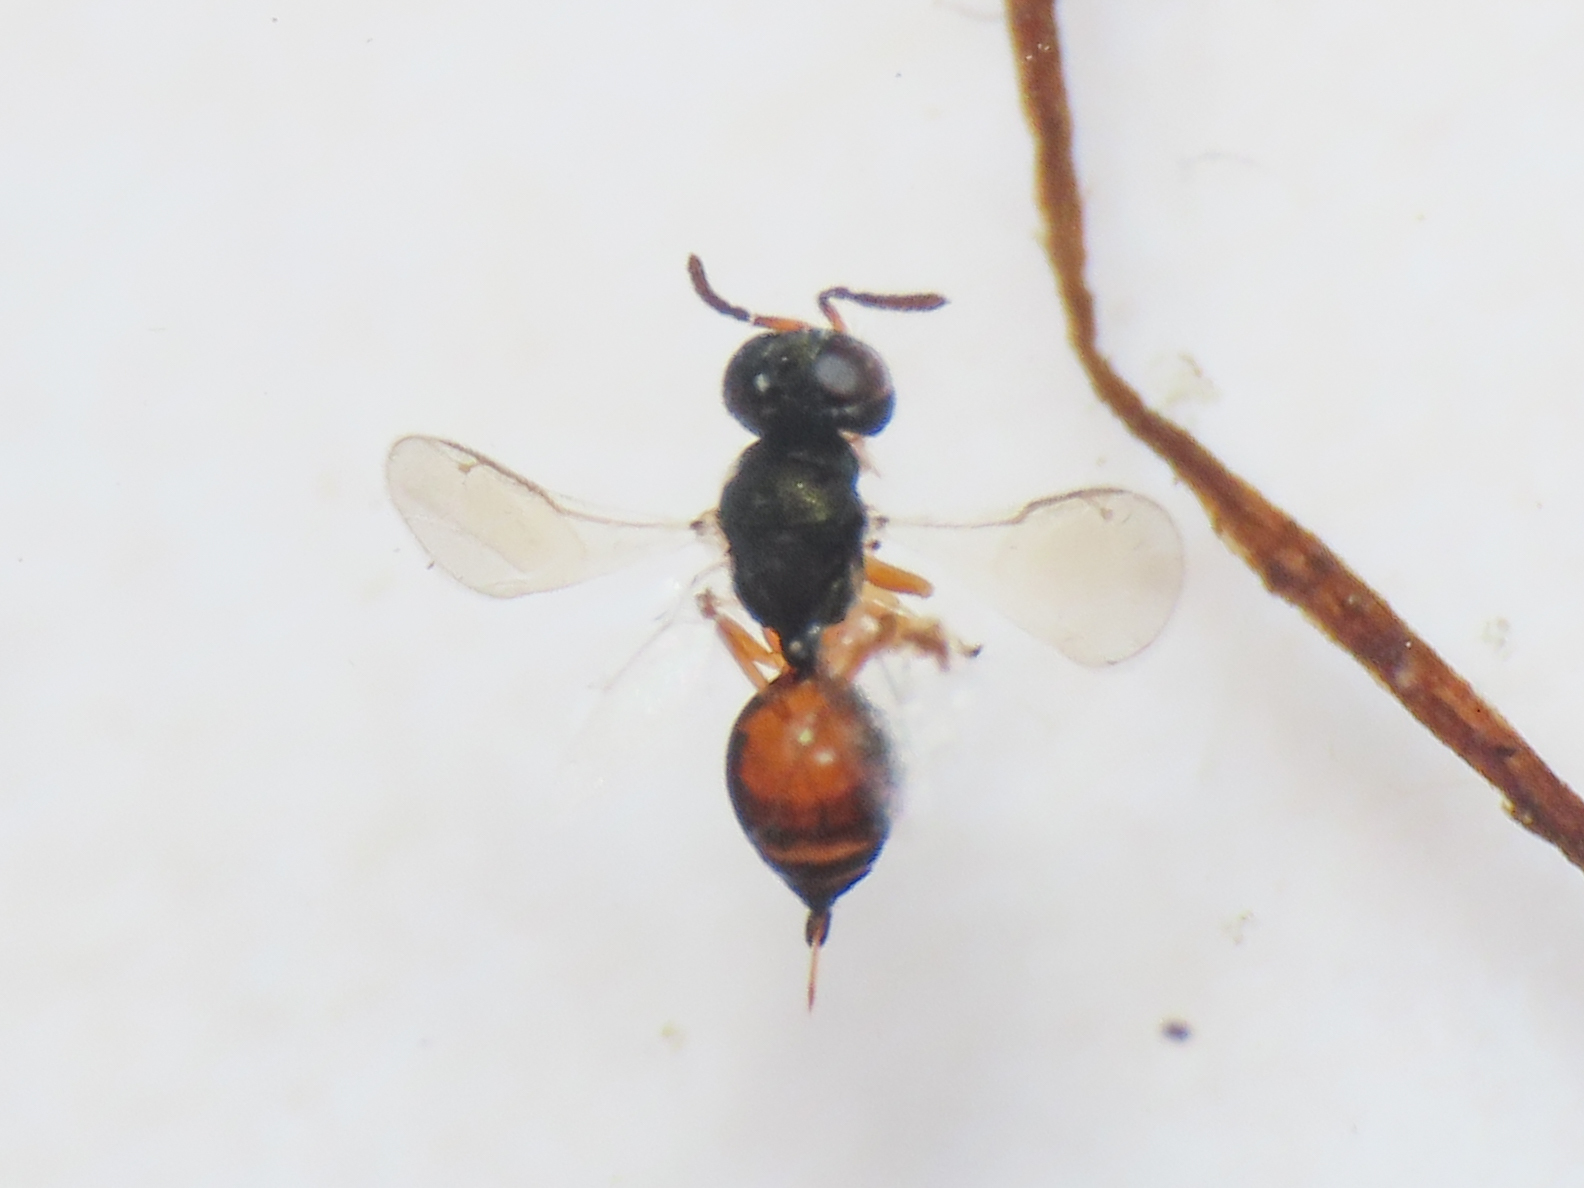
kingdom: Animalia
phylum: Arthropoda
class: Insecta
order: Hymenoptera
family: Pteromalidae
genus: Callitula
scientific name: Callitula bicolor
